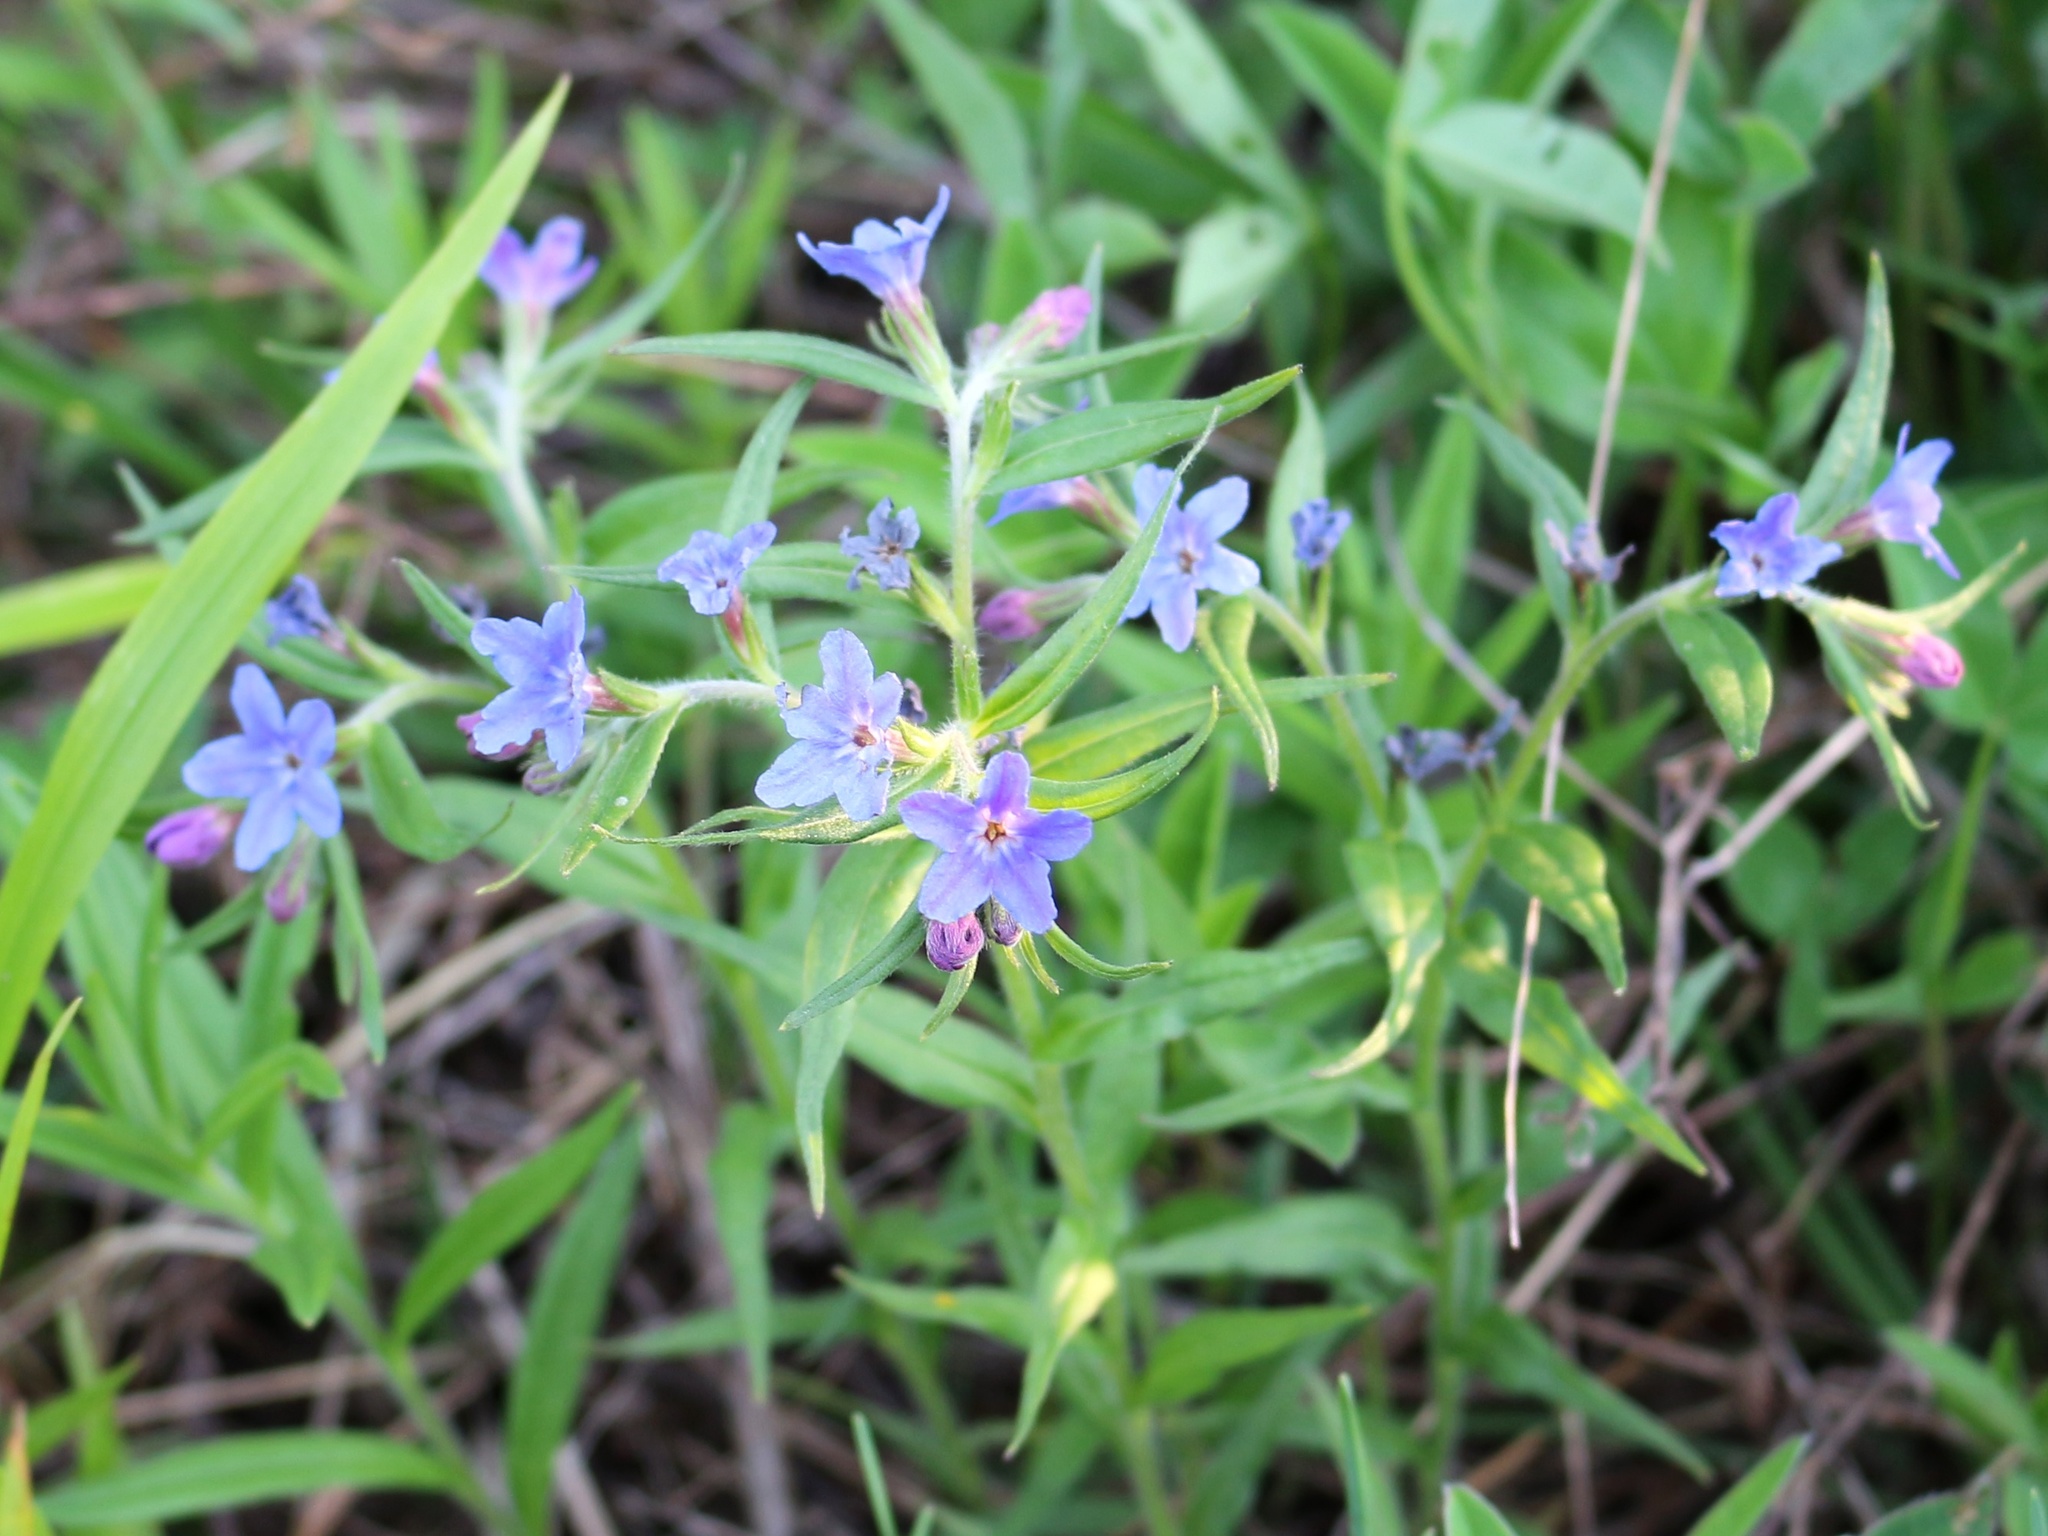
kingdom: Plantae
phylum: Tracheophyta
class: Magnoliopsida
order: Boraginales
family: Boraginaceae
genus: Aegonychon
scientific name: Aegonychon purpurocaeruleum
